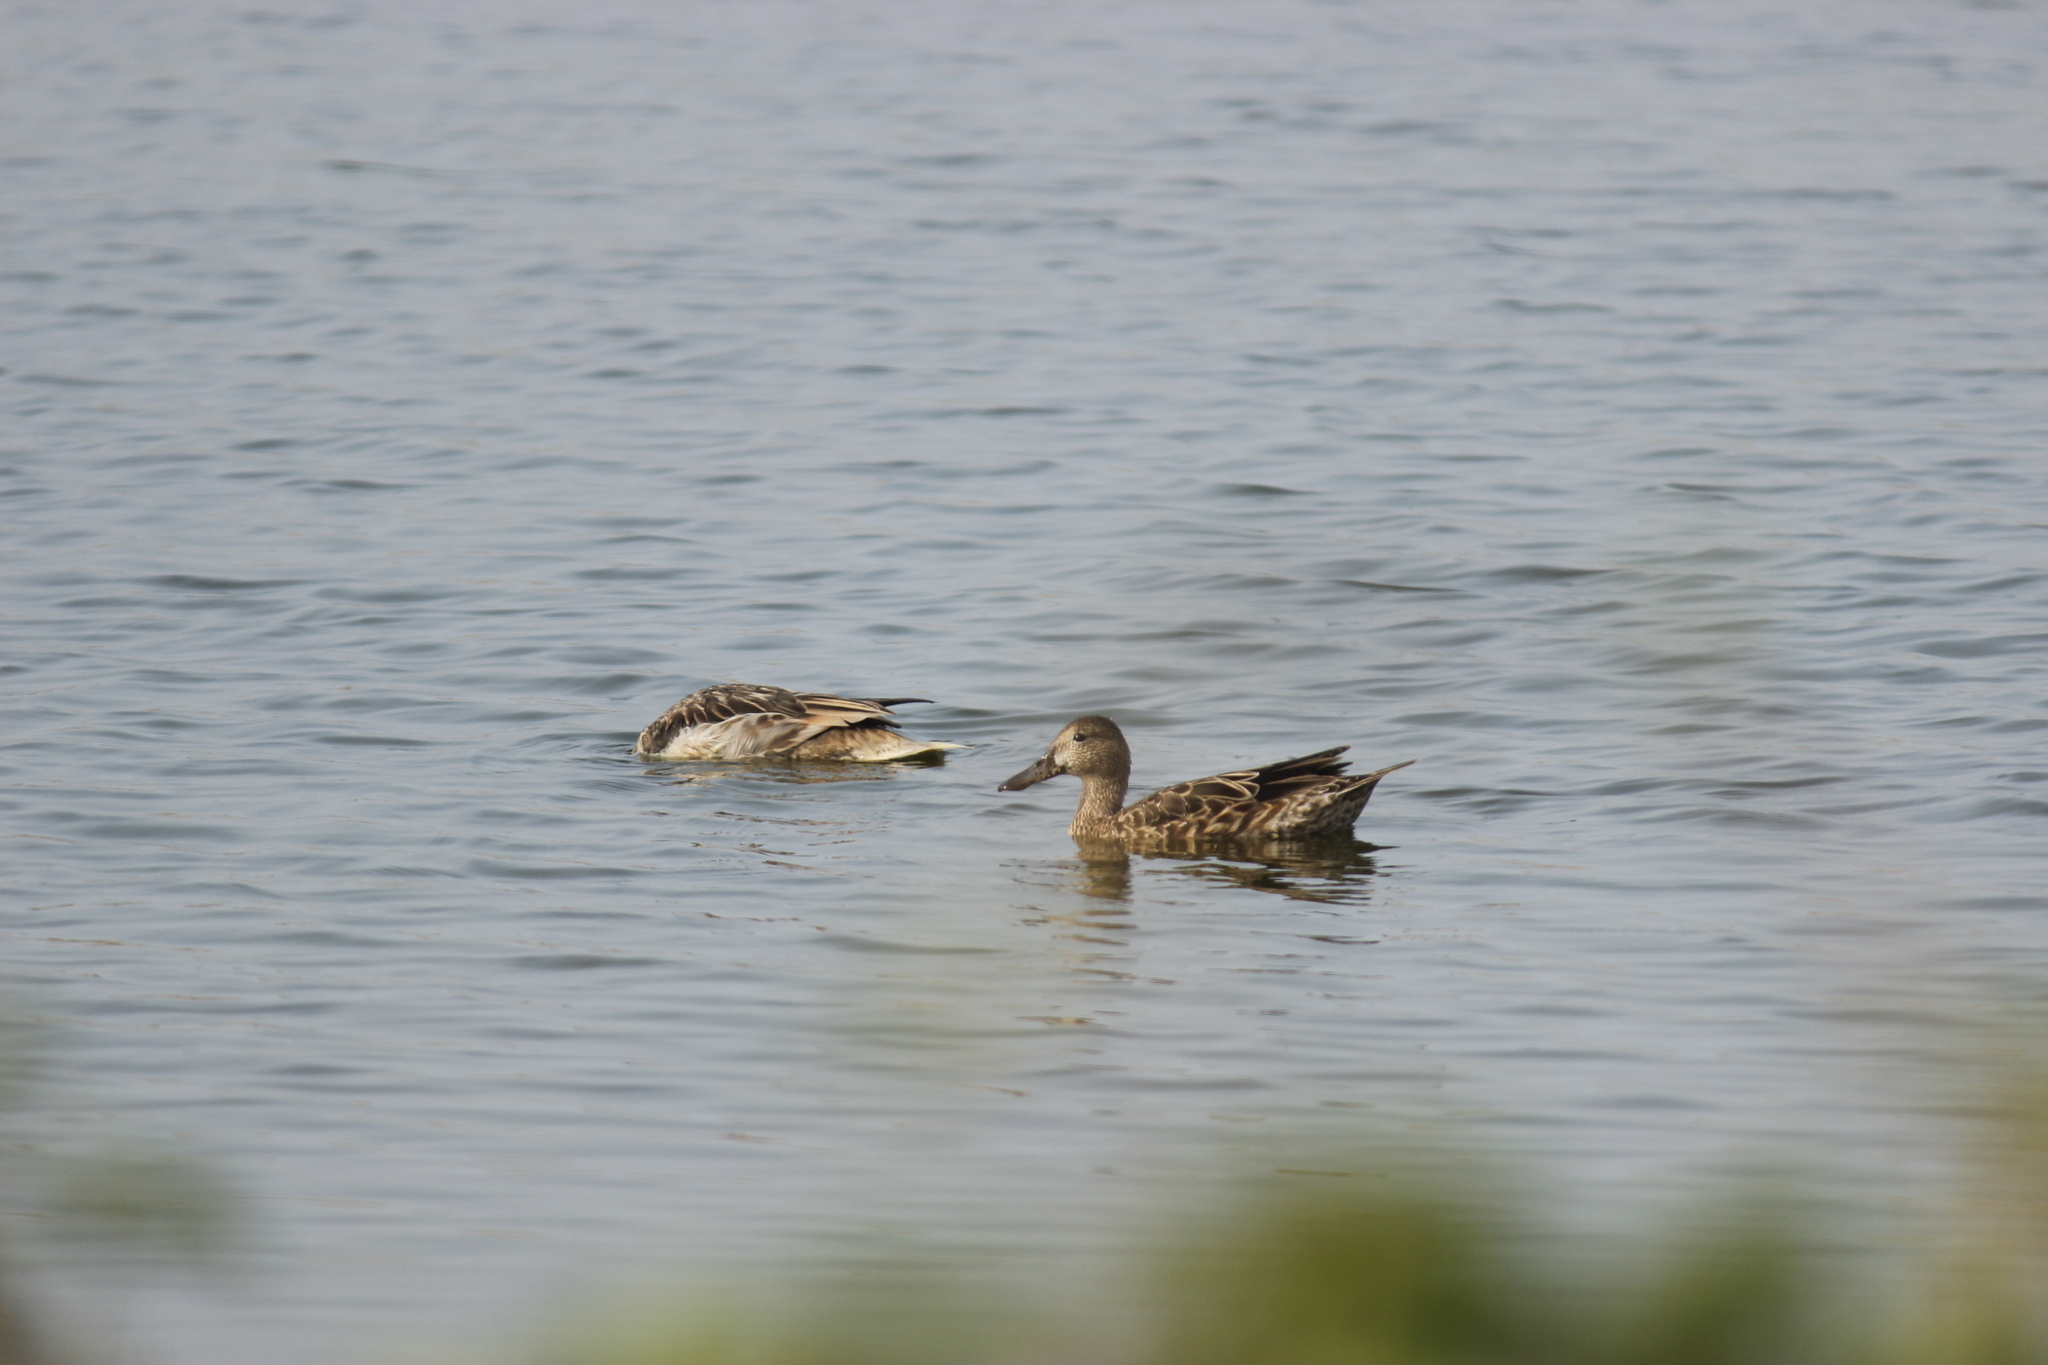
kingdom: Animalia
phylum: Chordata
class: Aves
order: Anseriformes
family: Anatidae
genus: Spatula
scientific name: Spatula discors
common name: Blue-winged teal
